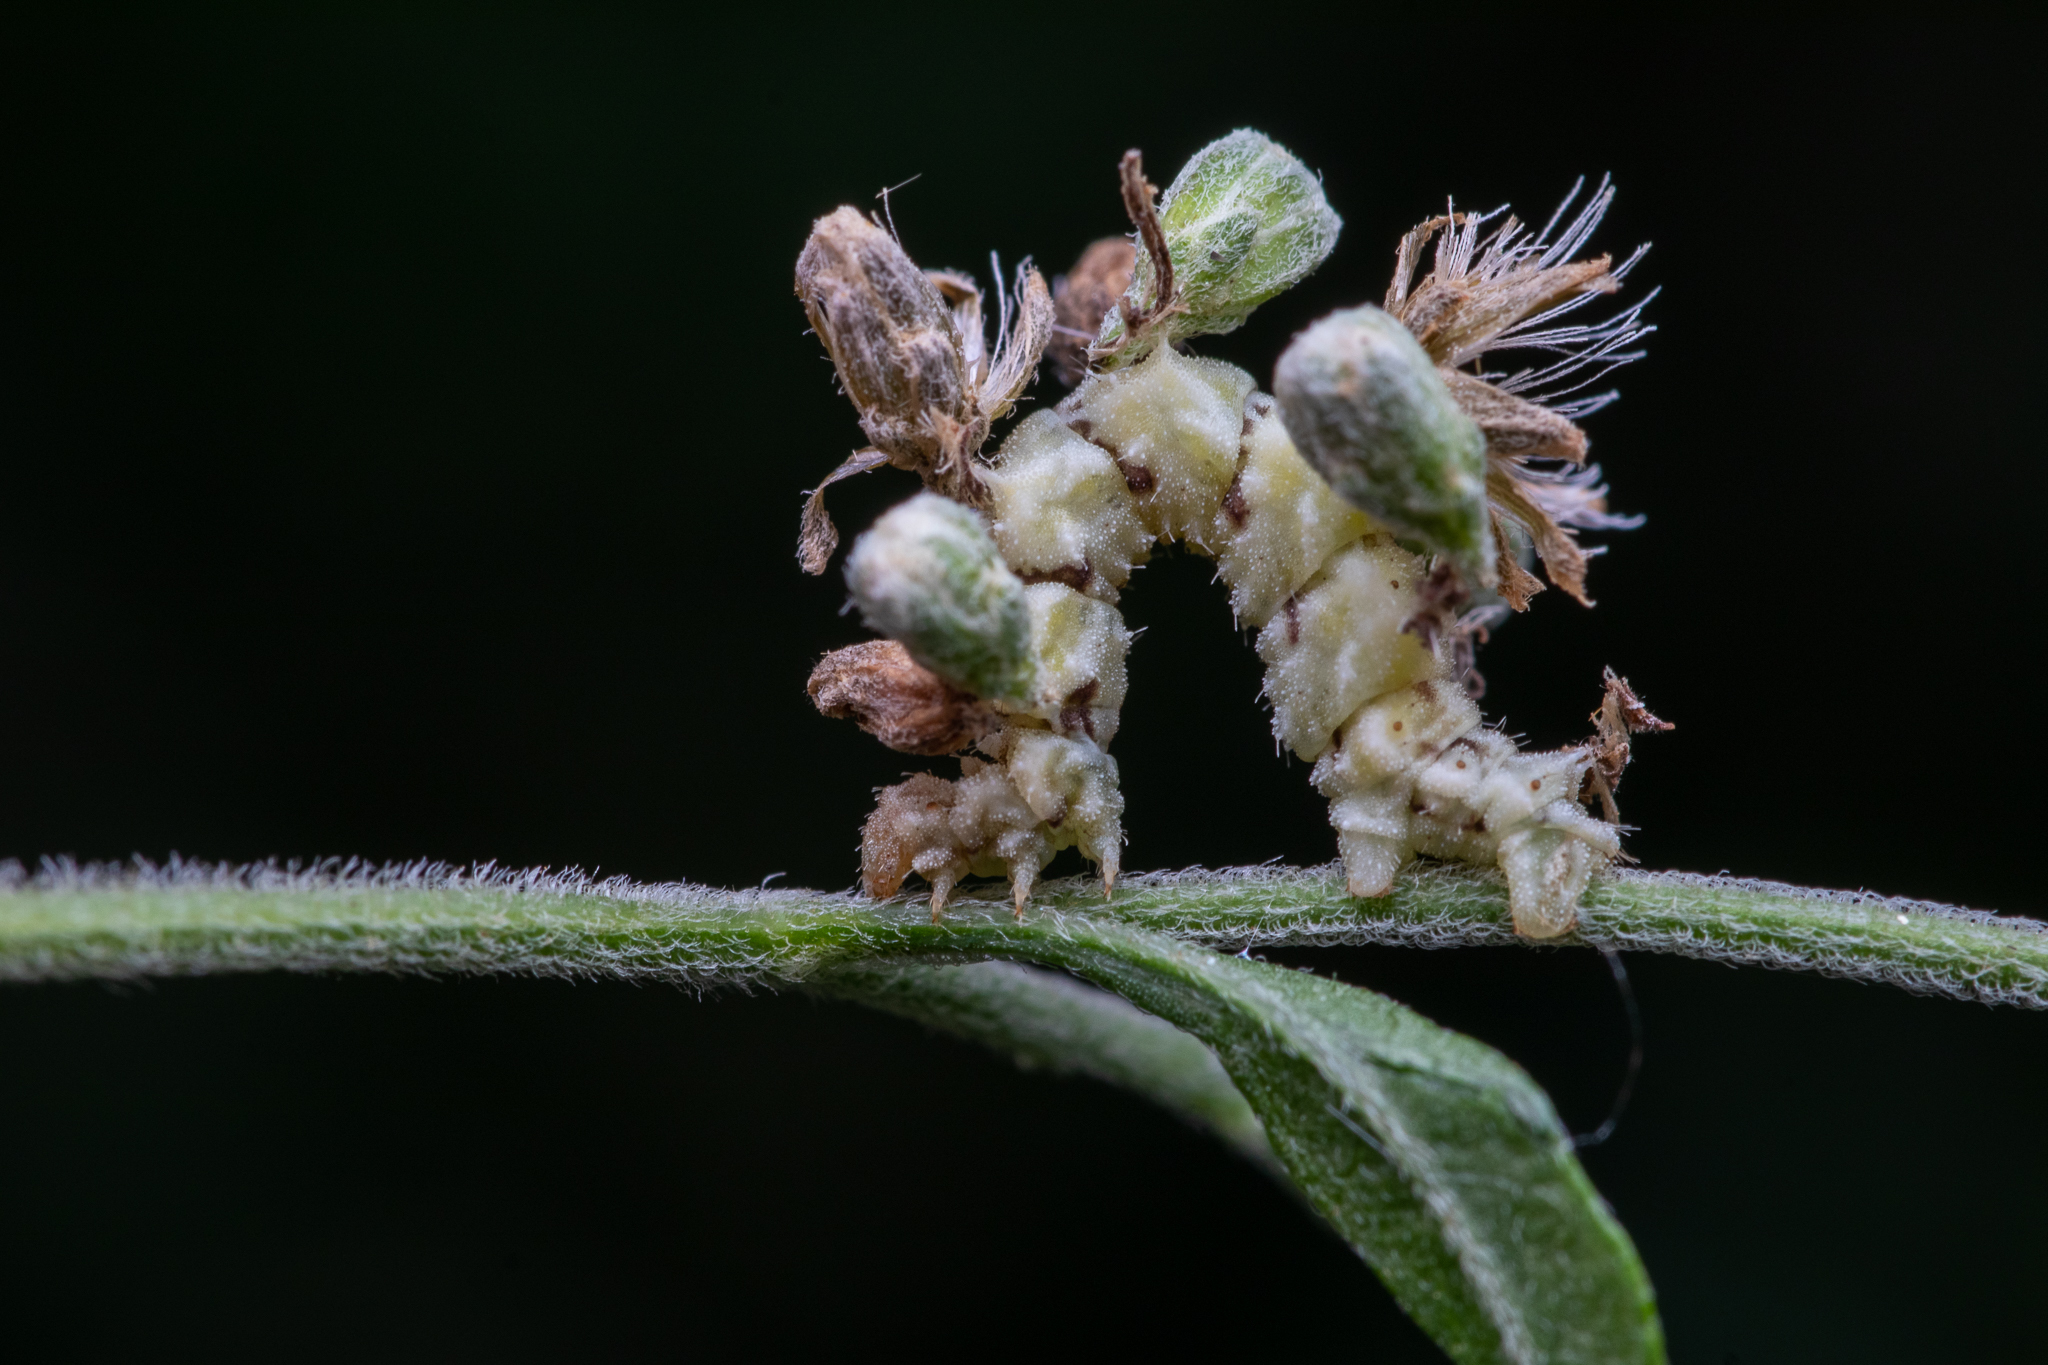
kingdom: Animalia
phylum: Arthropoda
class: Insecta
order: Lepidoptera
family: Geometridae
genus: Synchlora
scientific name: Synchlora
